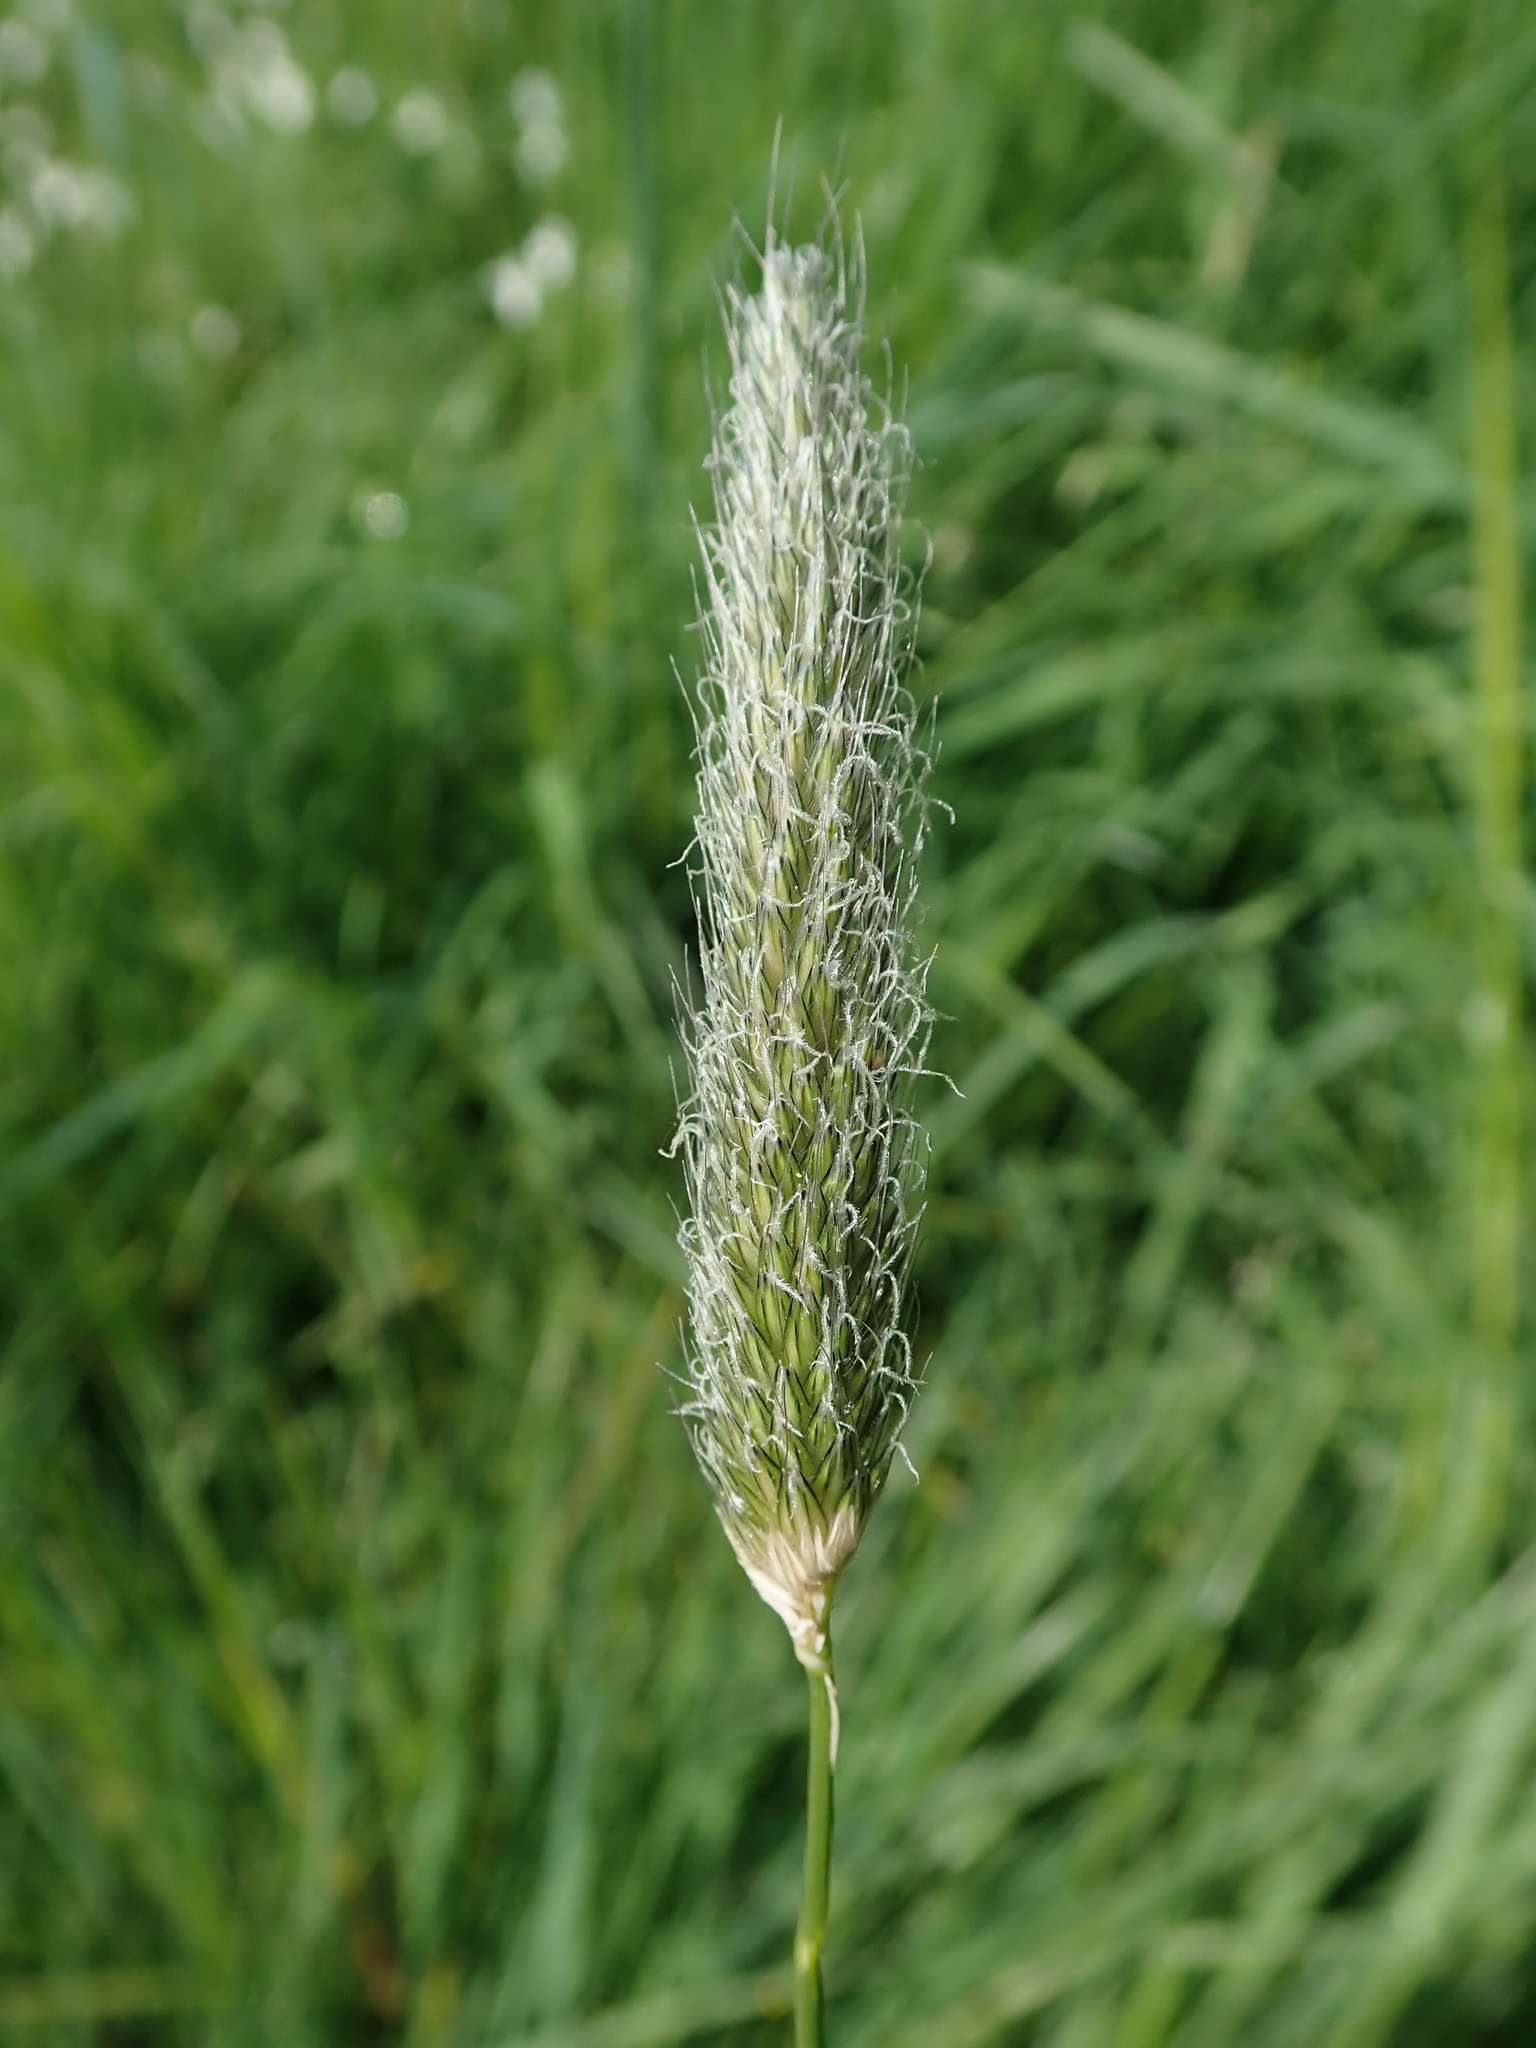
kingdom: Plantae
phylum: Tracheophyta
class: Liliopsida
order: Poales
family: Poaceae
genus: Alopecurus
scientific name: Alopecurus pratensis
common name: Meadow foxtail
